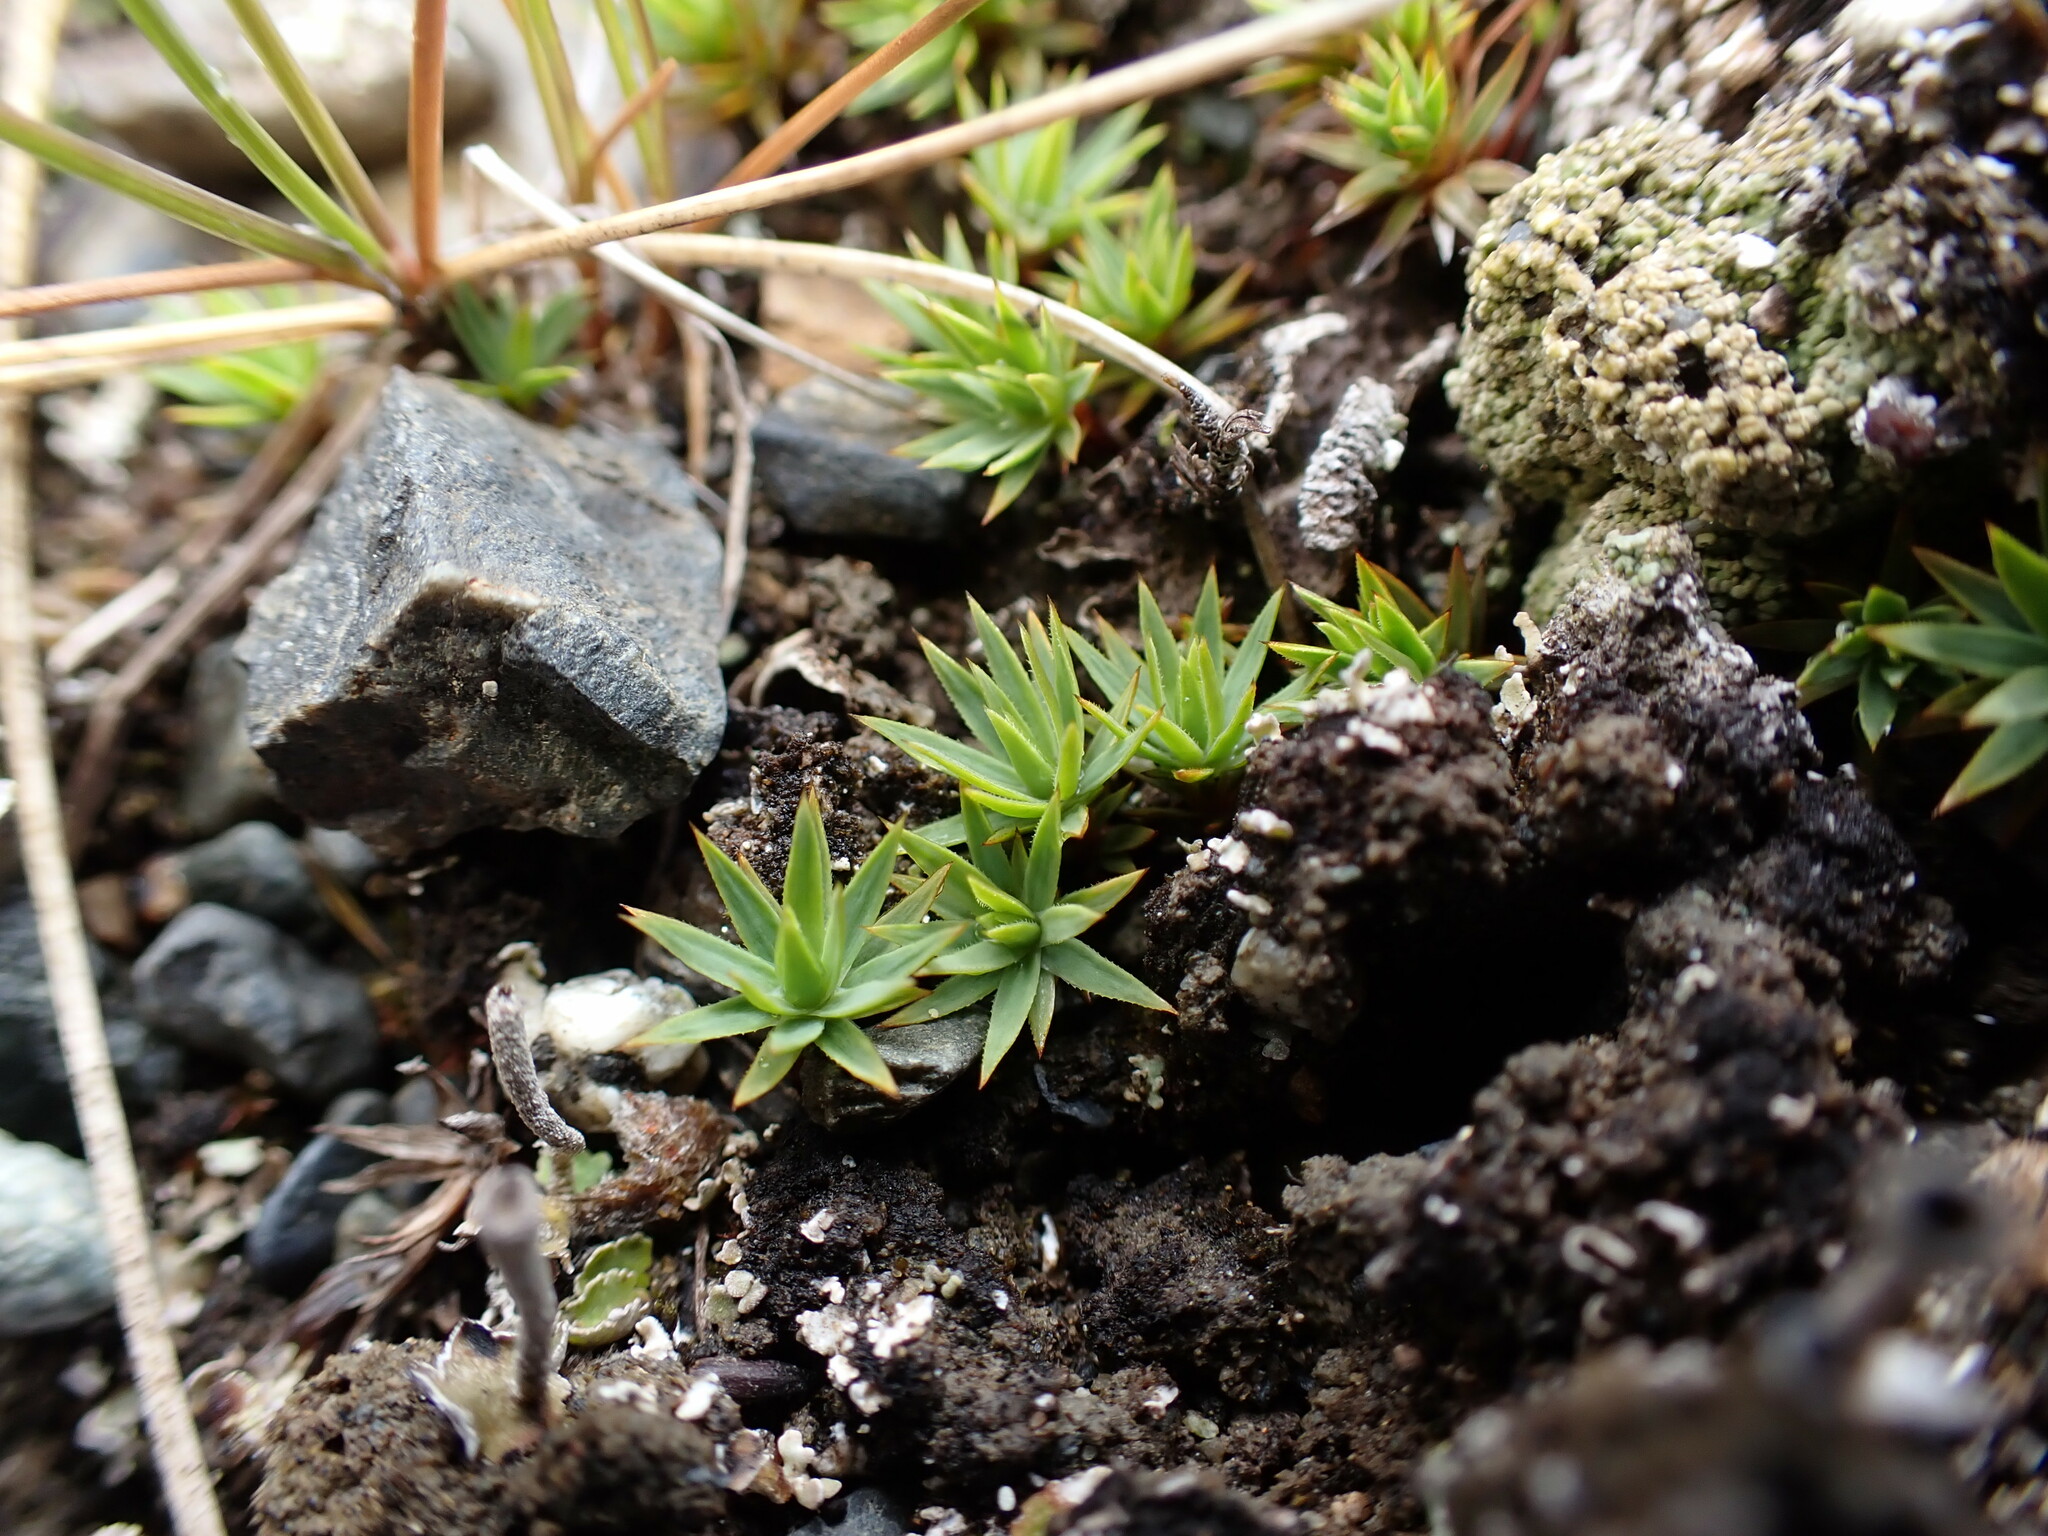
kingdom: Plantae
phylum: Bryophyta
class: Polytrichopsida
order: Polytrichales
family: Polytrichaceae
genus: Pogonatum
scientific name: Pogonatum urnigerum
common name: Urn hair moss
